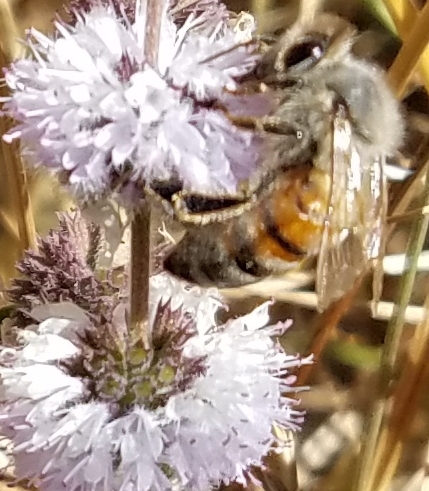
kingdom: Animalia
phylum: Arthropoda
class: Insecta
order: Hymenoptera
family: Apidae
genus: Apis
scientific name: Apis mellifera
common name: Honey bee
